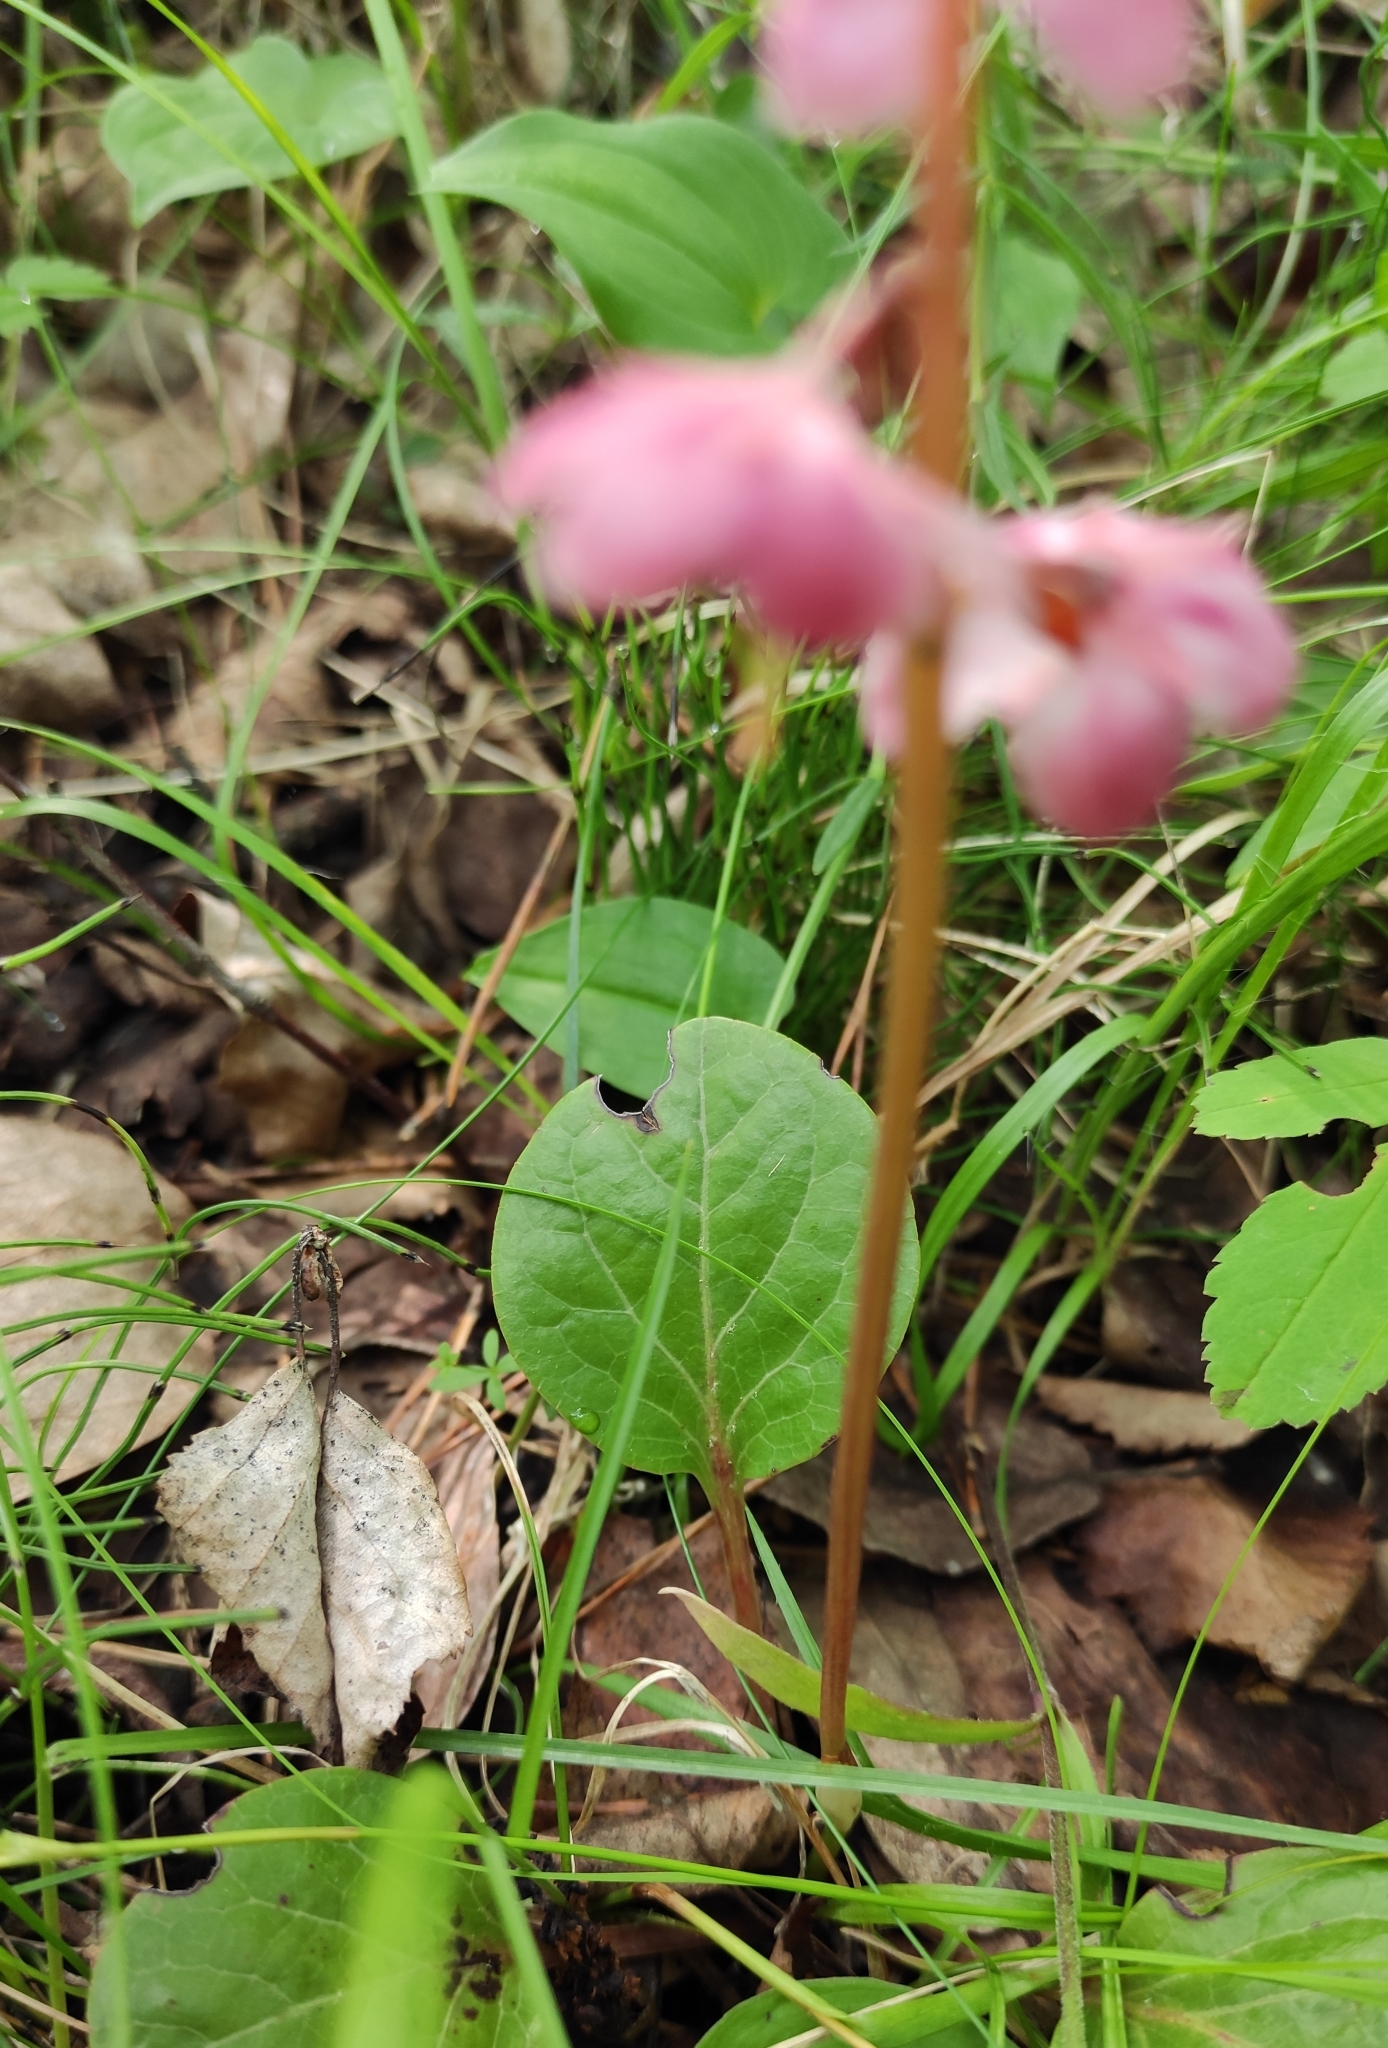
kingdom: Plantae
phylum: Tracheophyta
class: Magnoliopsida
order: Ericales
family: Ericaceae
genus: Pyrola
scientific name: Pyrola asarifolia
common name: Bog wintergreen
